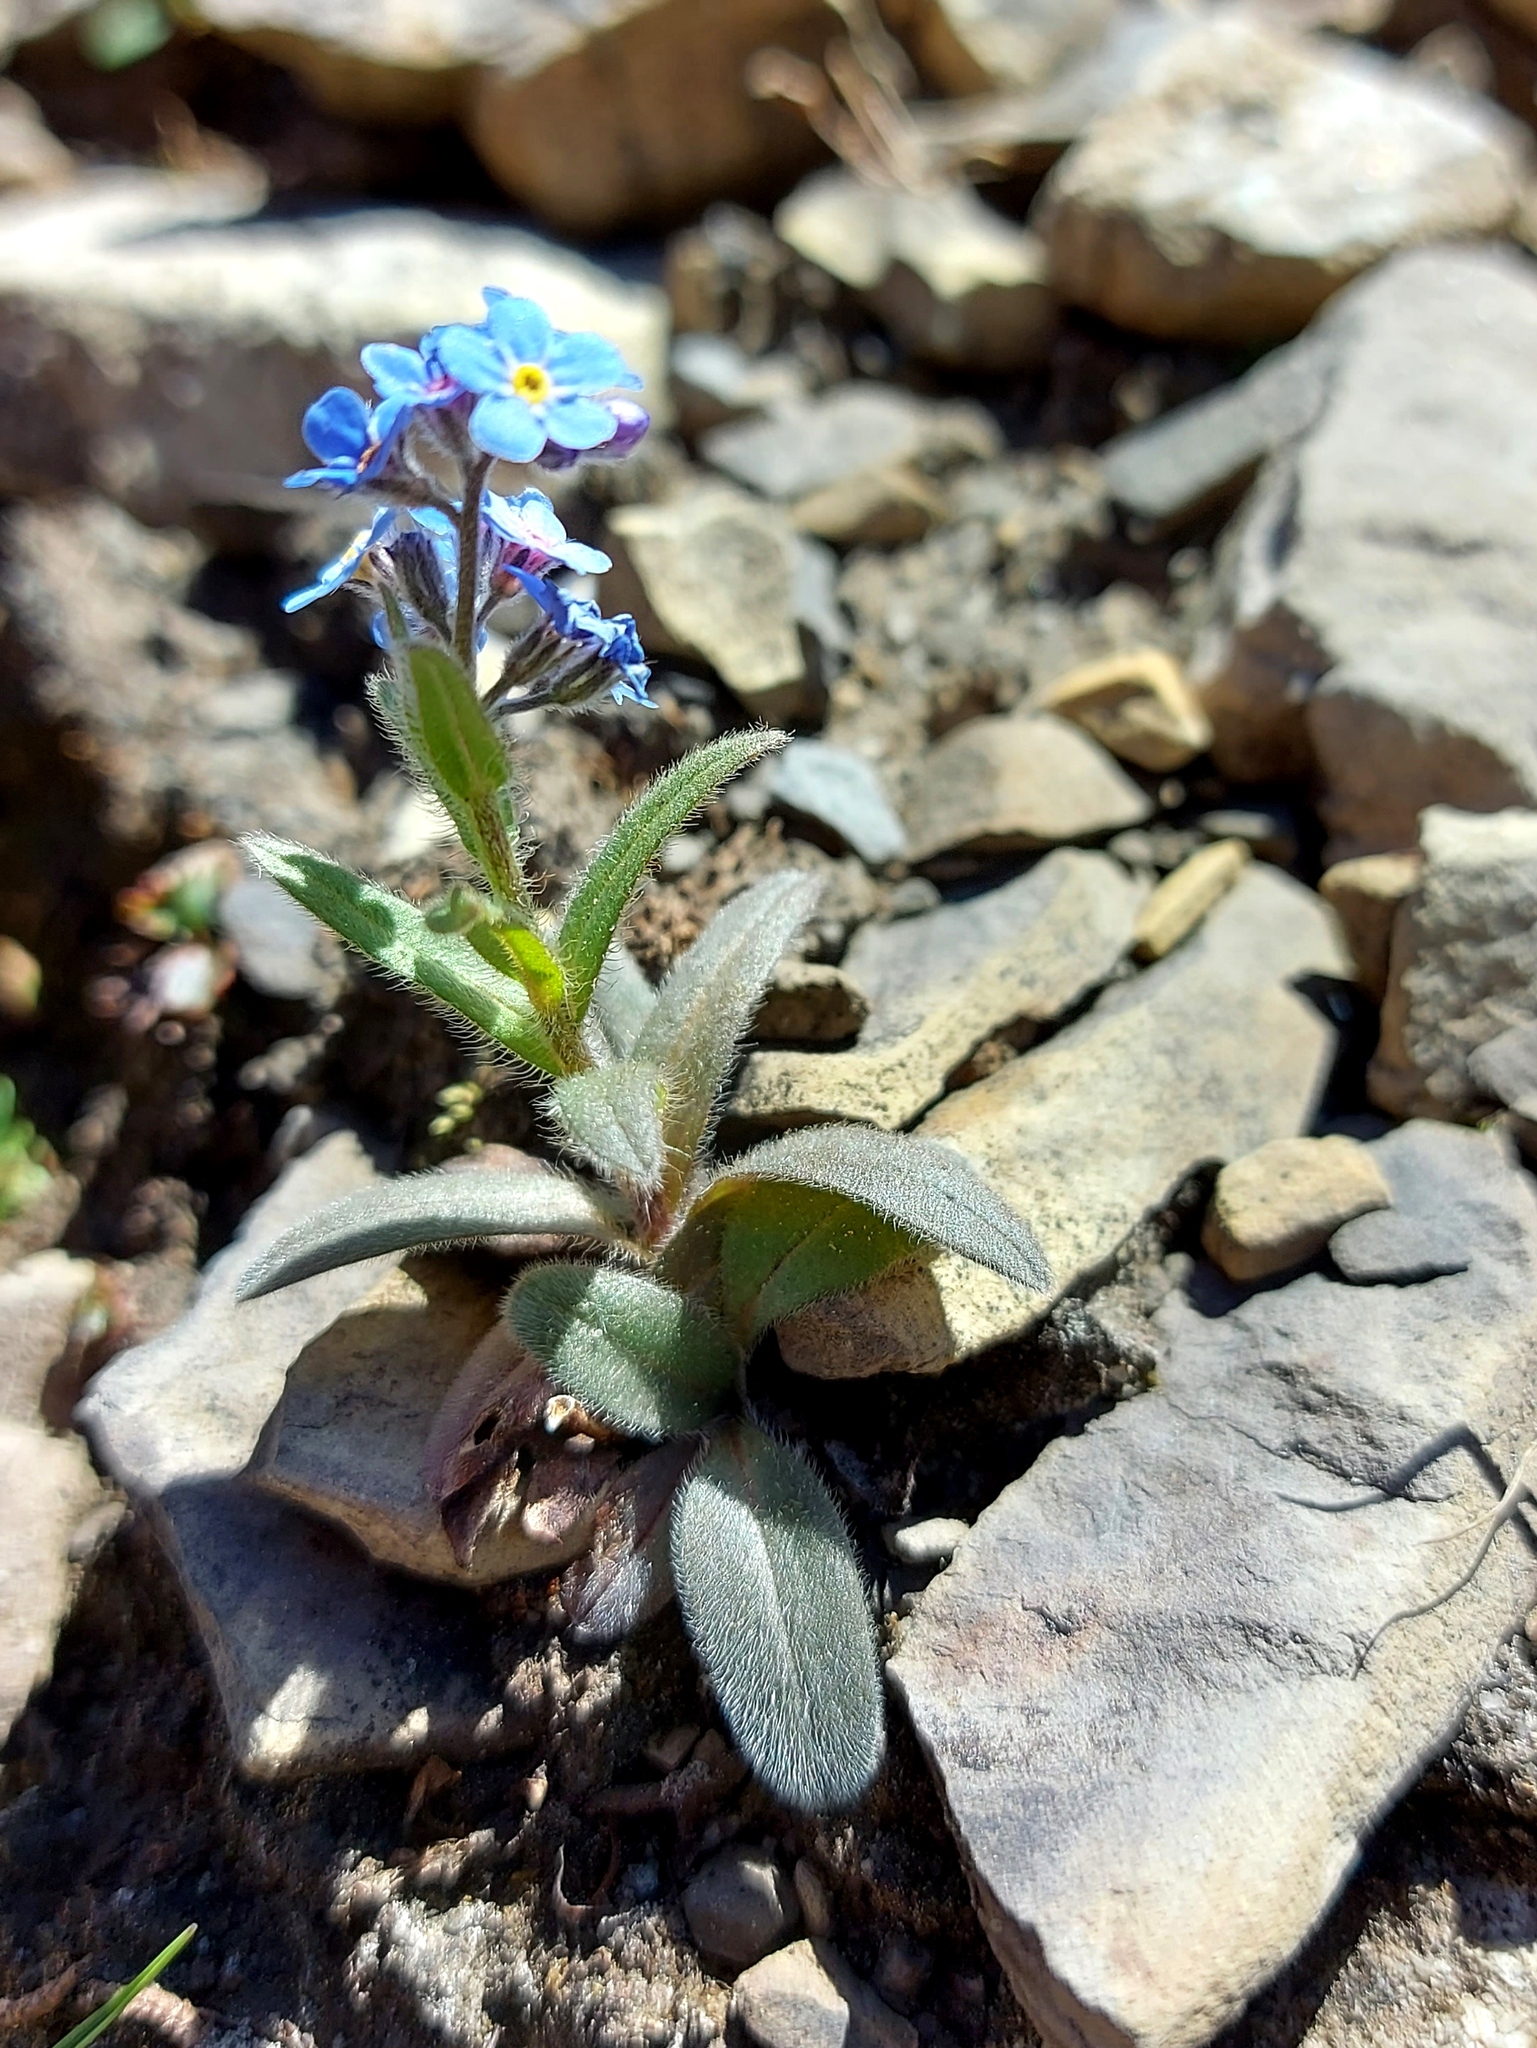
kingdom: Plantae
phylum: Tracheophyta
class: Magnoliopsida
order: Boraginales
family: Boraginaceae
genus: Myosotis
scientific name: Myosotis asiatica
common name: Asian forget-me-not
